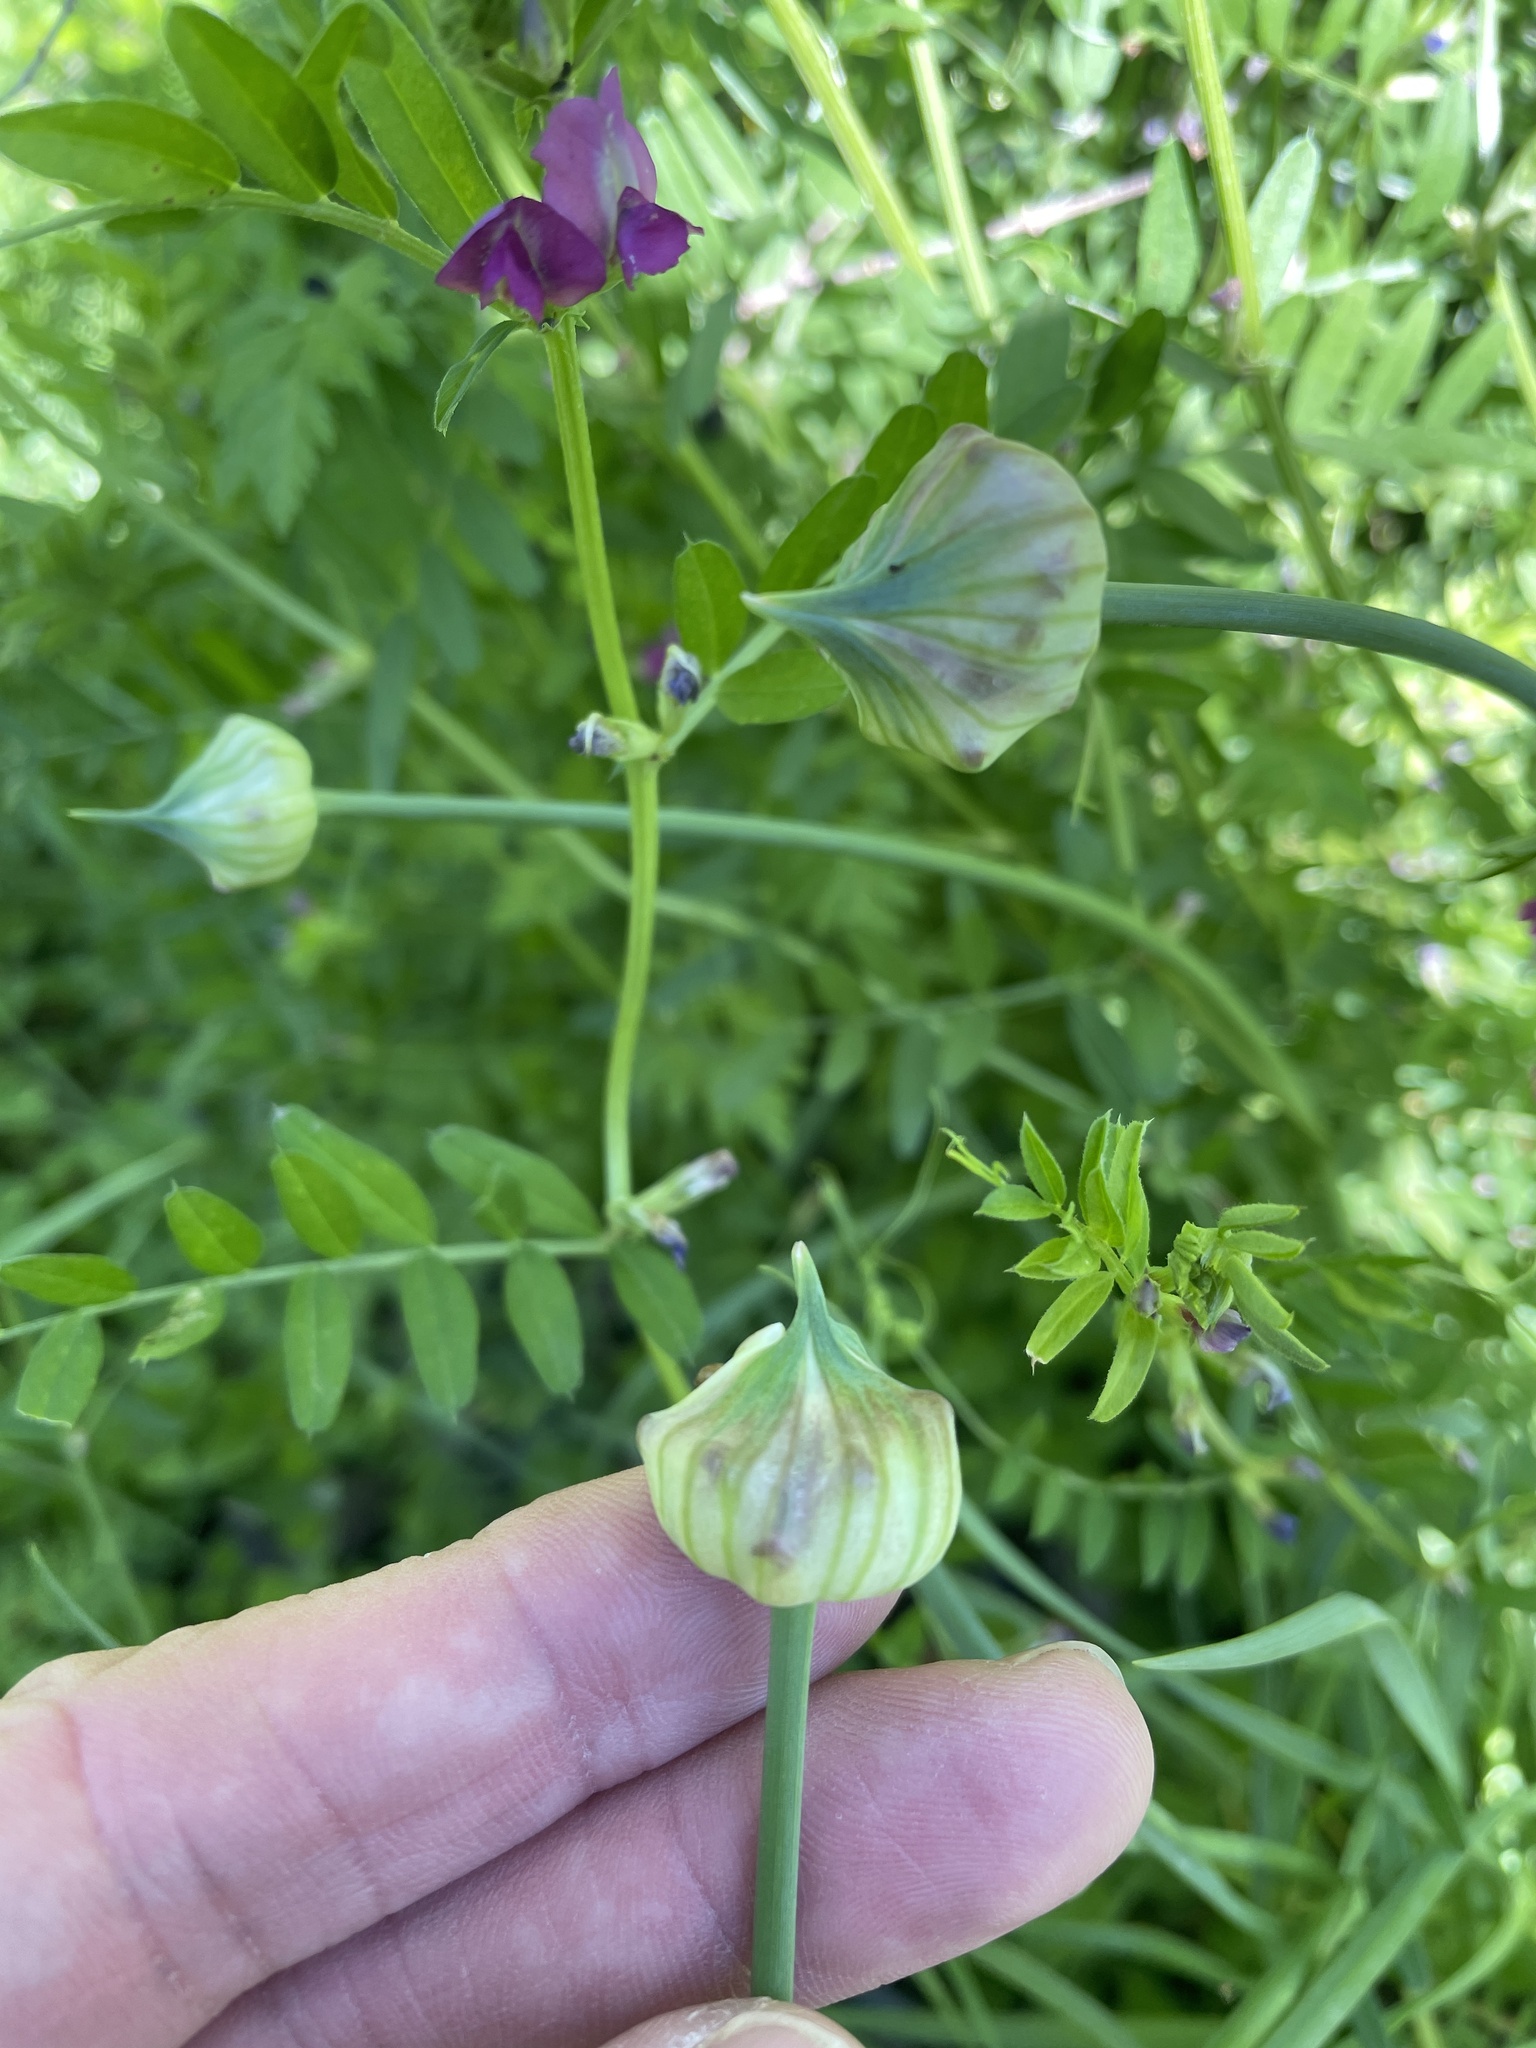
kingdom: Plantae
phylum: Tracheophyta
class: Liliopsida
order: Asparagales
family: Amaryllidaceae
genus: Allium
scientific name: Allium canadense
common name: Meadow garlic
